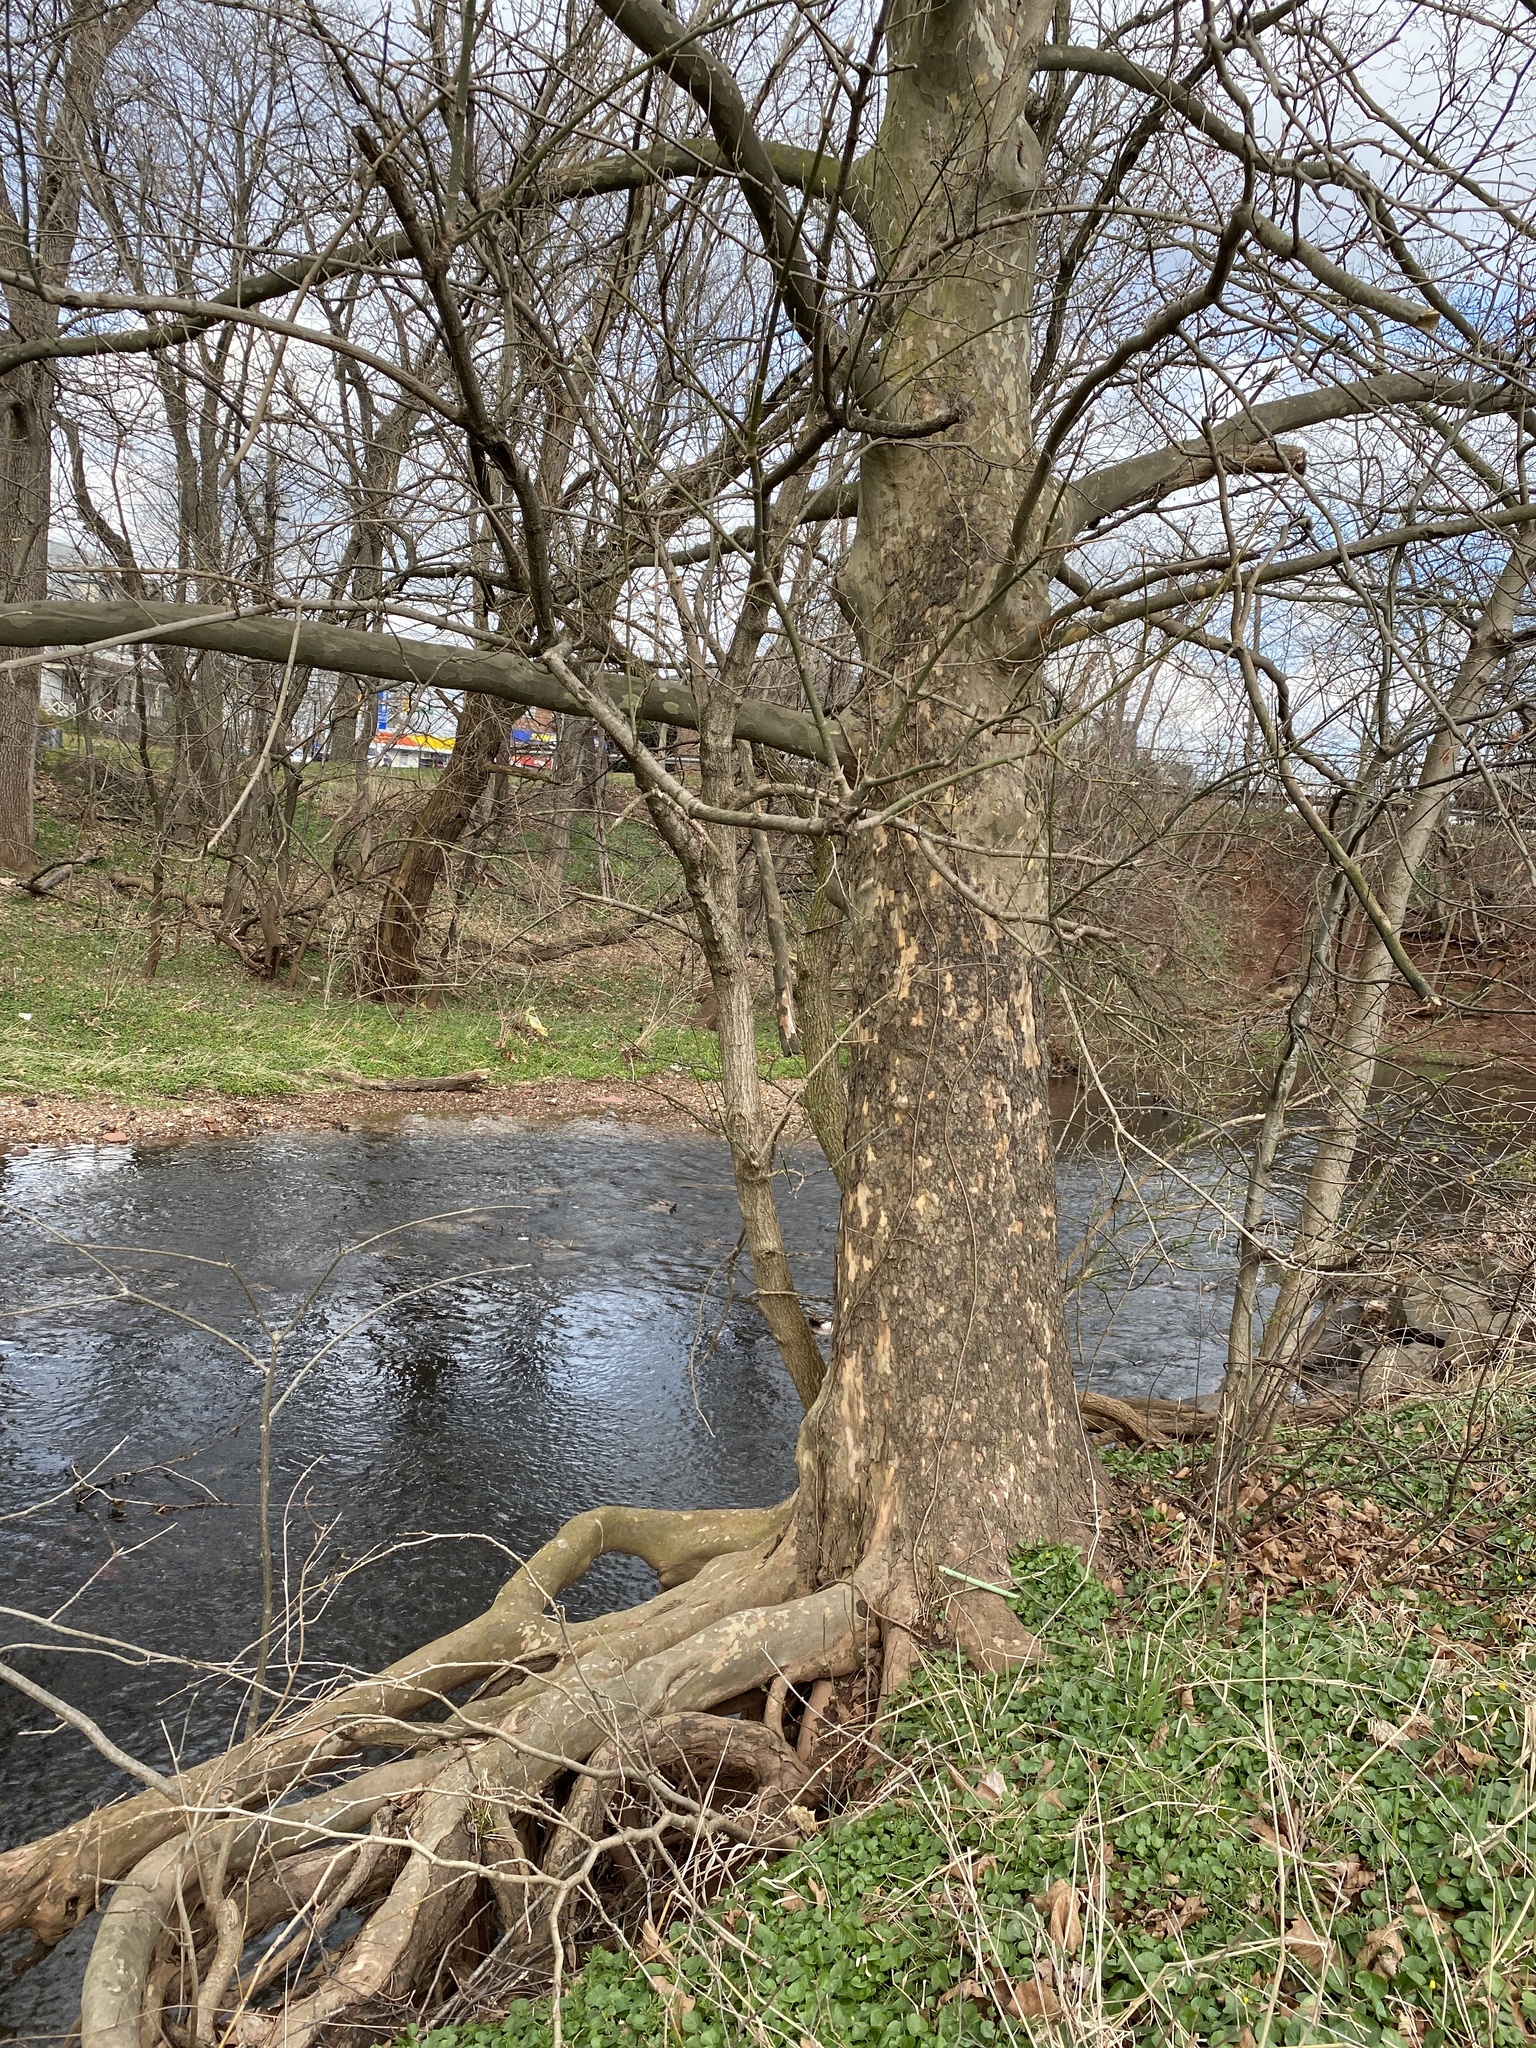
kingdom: Plantae
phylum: Tracheophyta
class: Magnoliopsida
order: Proteales
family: Platanaceae
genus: Platanus
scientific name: Platanus occidentalis
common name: American sycamore
